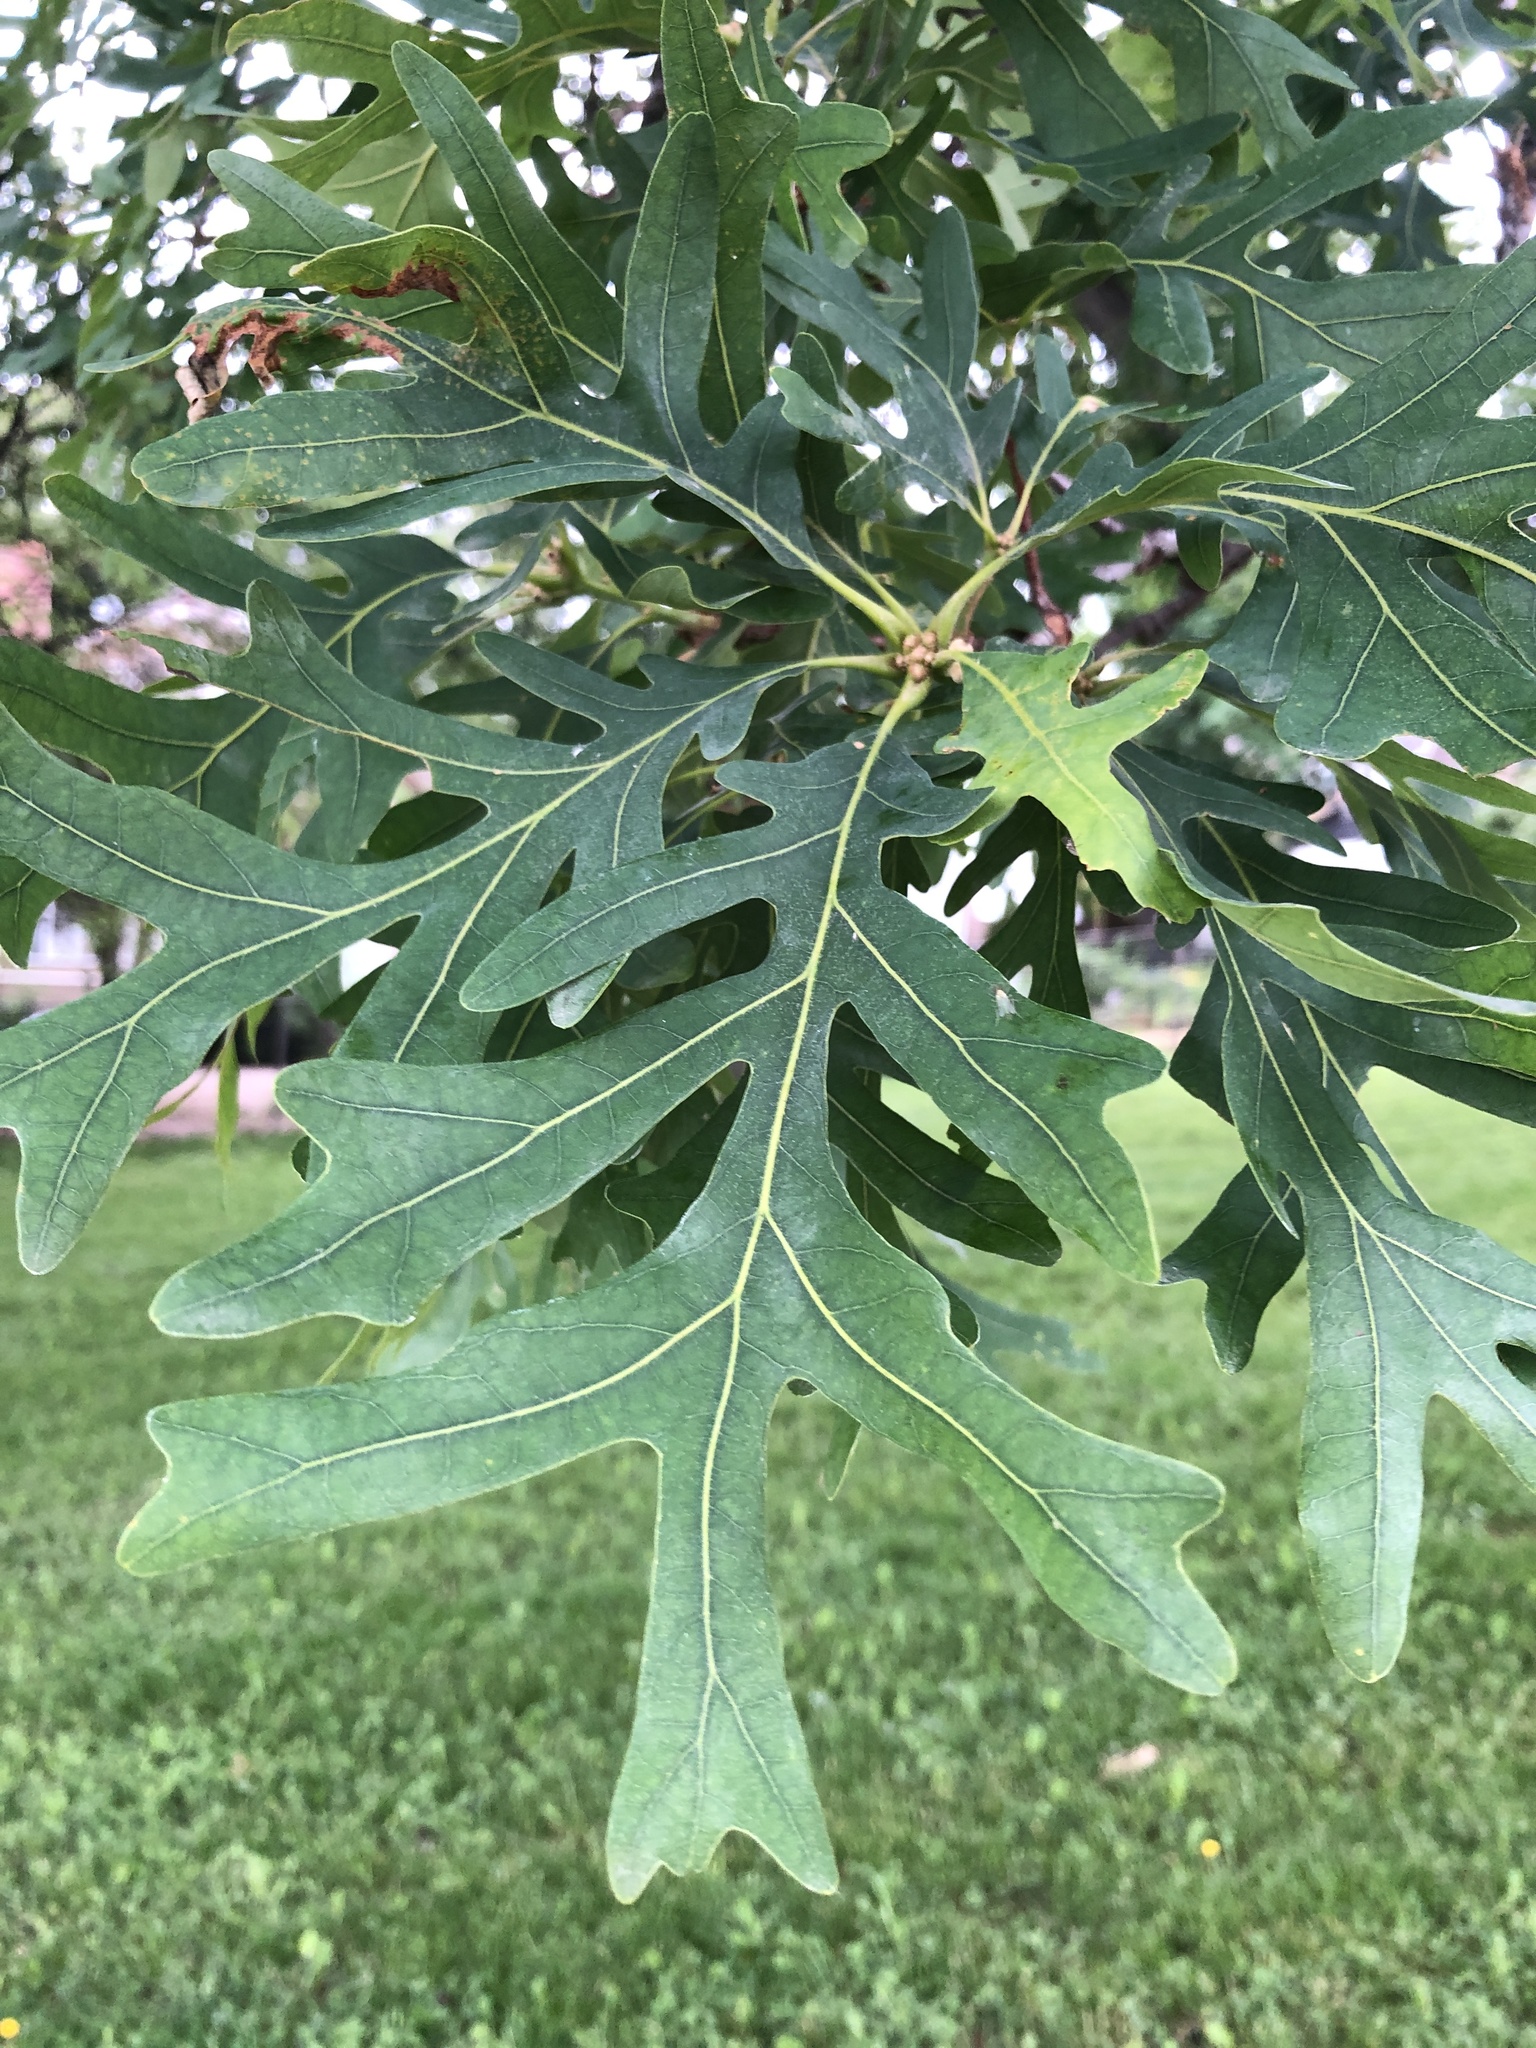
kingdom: Plantae
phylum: Tracheophyta
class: Magnoliopsida
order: Fagales
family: Fagaceae
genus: Quercus
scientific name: Quercus alba
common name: White oak
